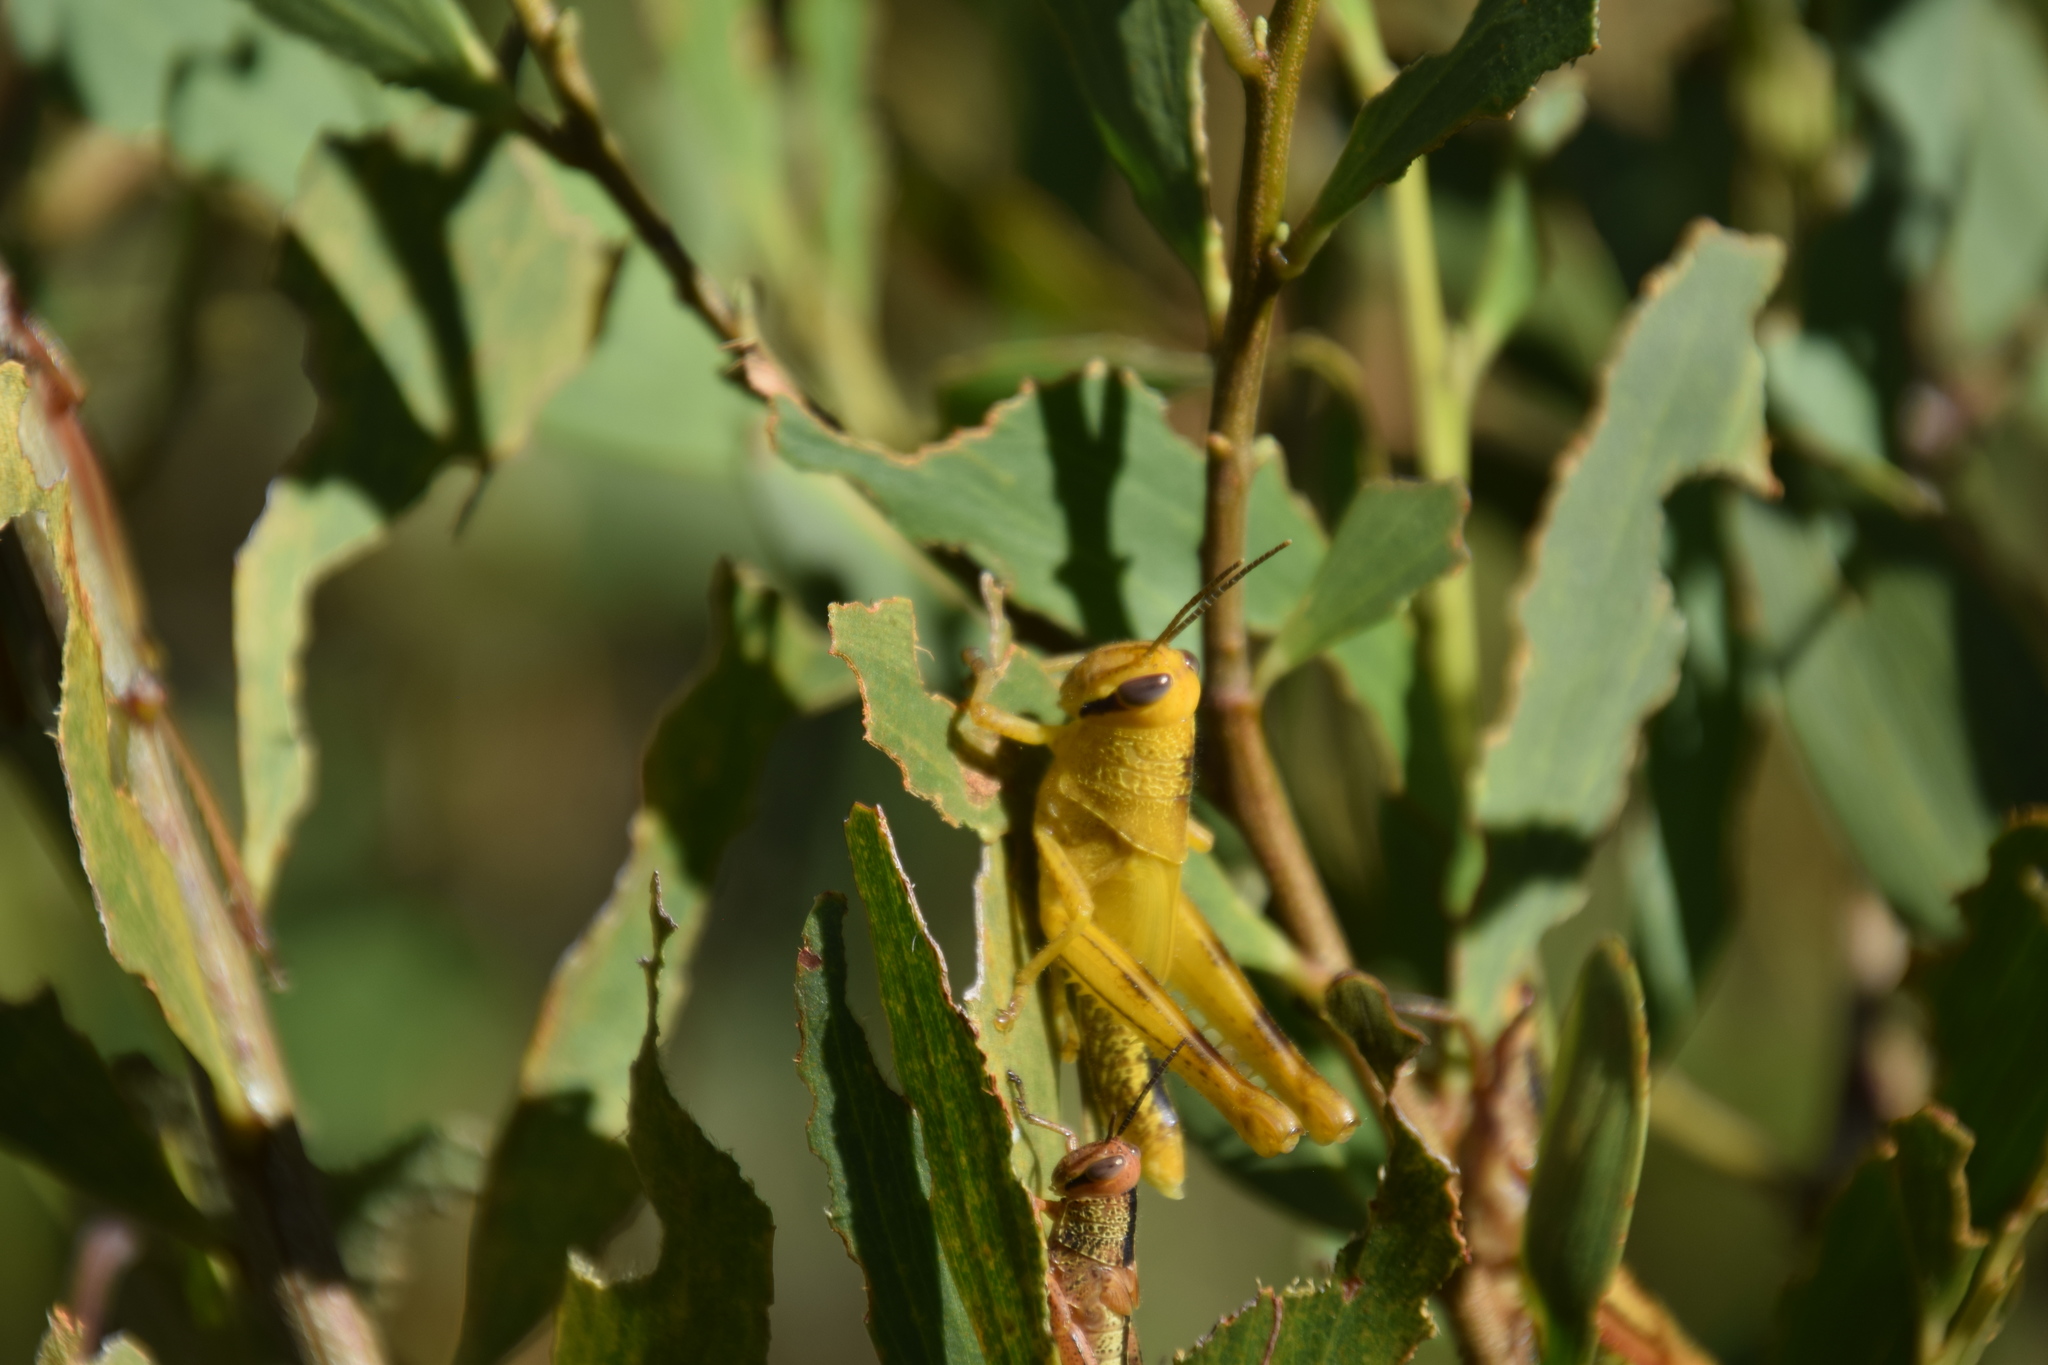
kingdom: Animalia
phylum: Arthropoda
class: Insecta
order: Orthoptera
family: Acrididae
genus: Valanga
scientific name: Valanga irregularis
